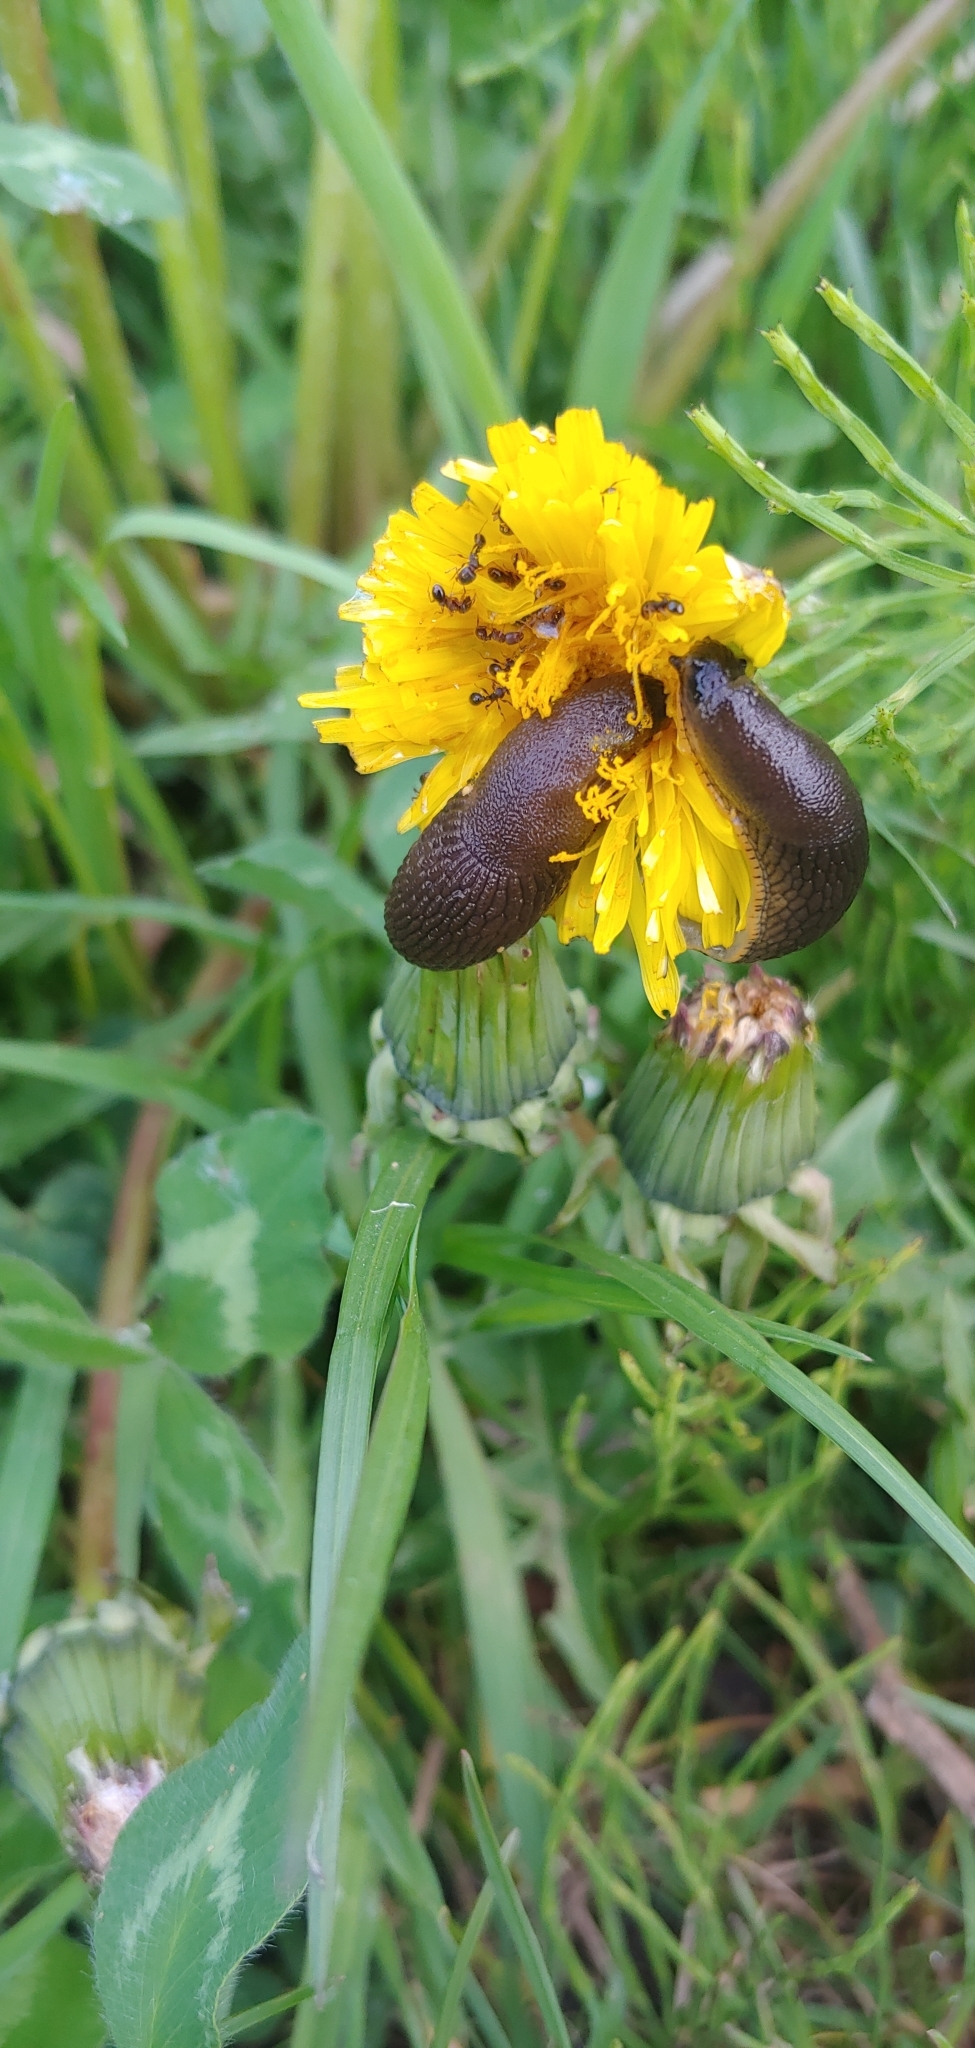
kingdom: Animalia
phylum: Mollusca
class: Gastropoda
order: Stylommatophora
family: Arionidae
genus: Arion
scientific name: Arion
